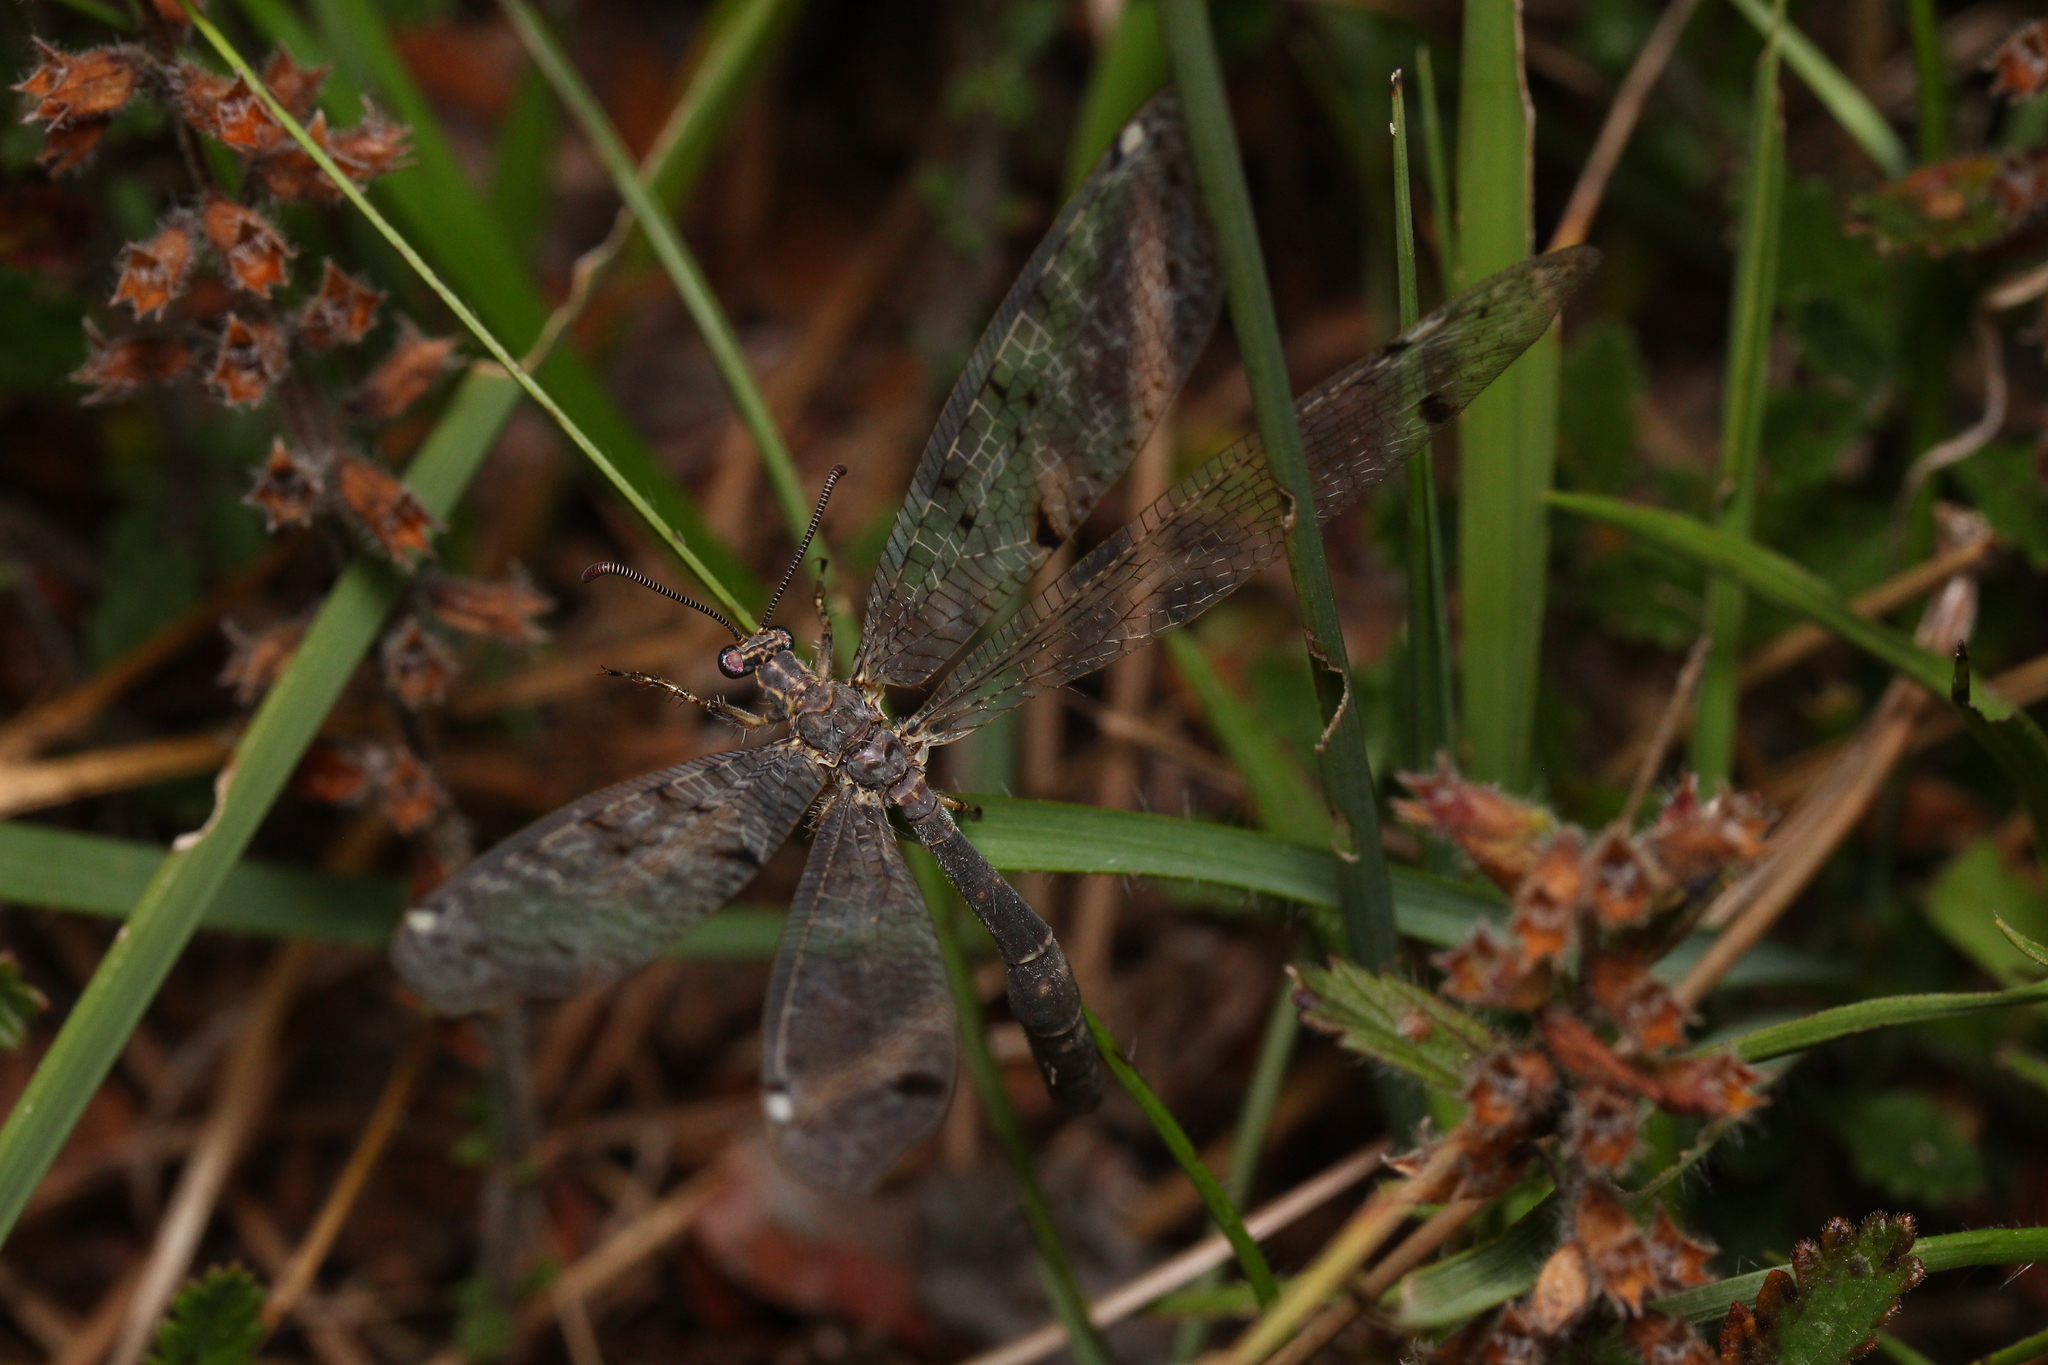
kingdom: Animalia
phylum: Arthropoda
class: Insecta
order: Neuroptera
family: Myrmeleontidae
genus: Distoleon
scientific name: Distoleon tetragrammicus
